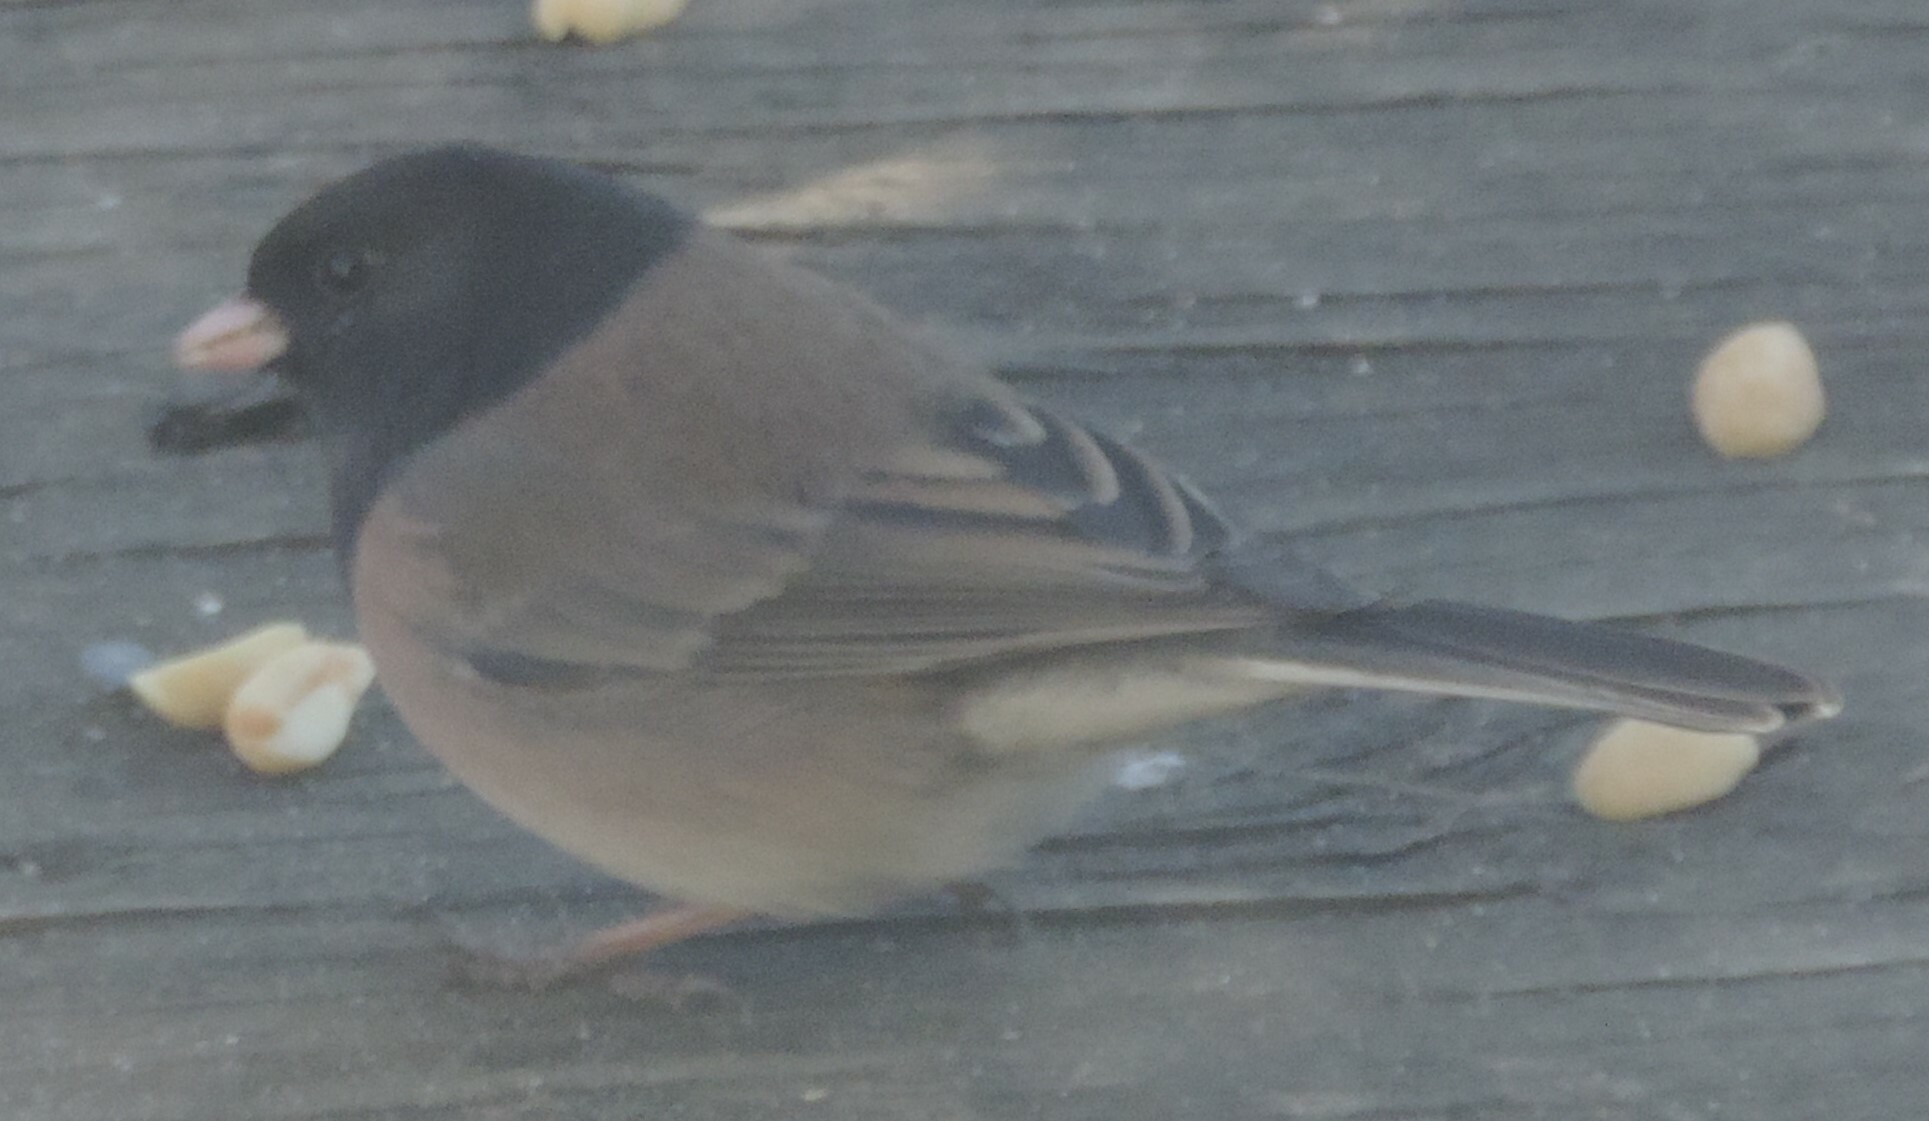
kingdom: Animalia
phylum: Chordata
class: Aves
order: Passeriformes
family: Passerellidae
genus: Junco
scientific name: Junco hyemalis
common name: Dark-eyed junco
